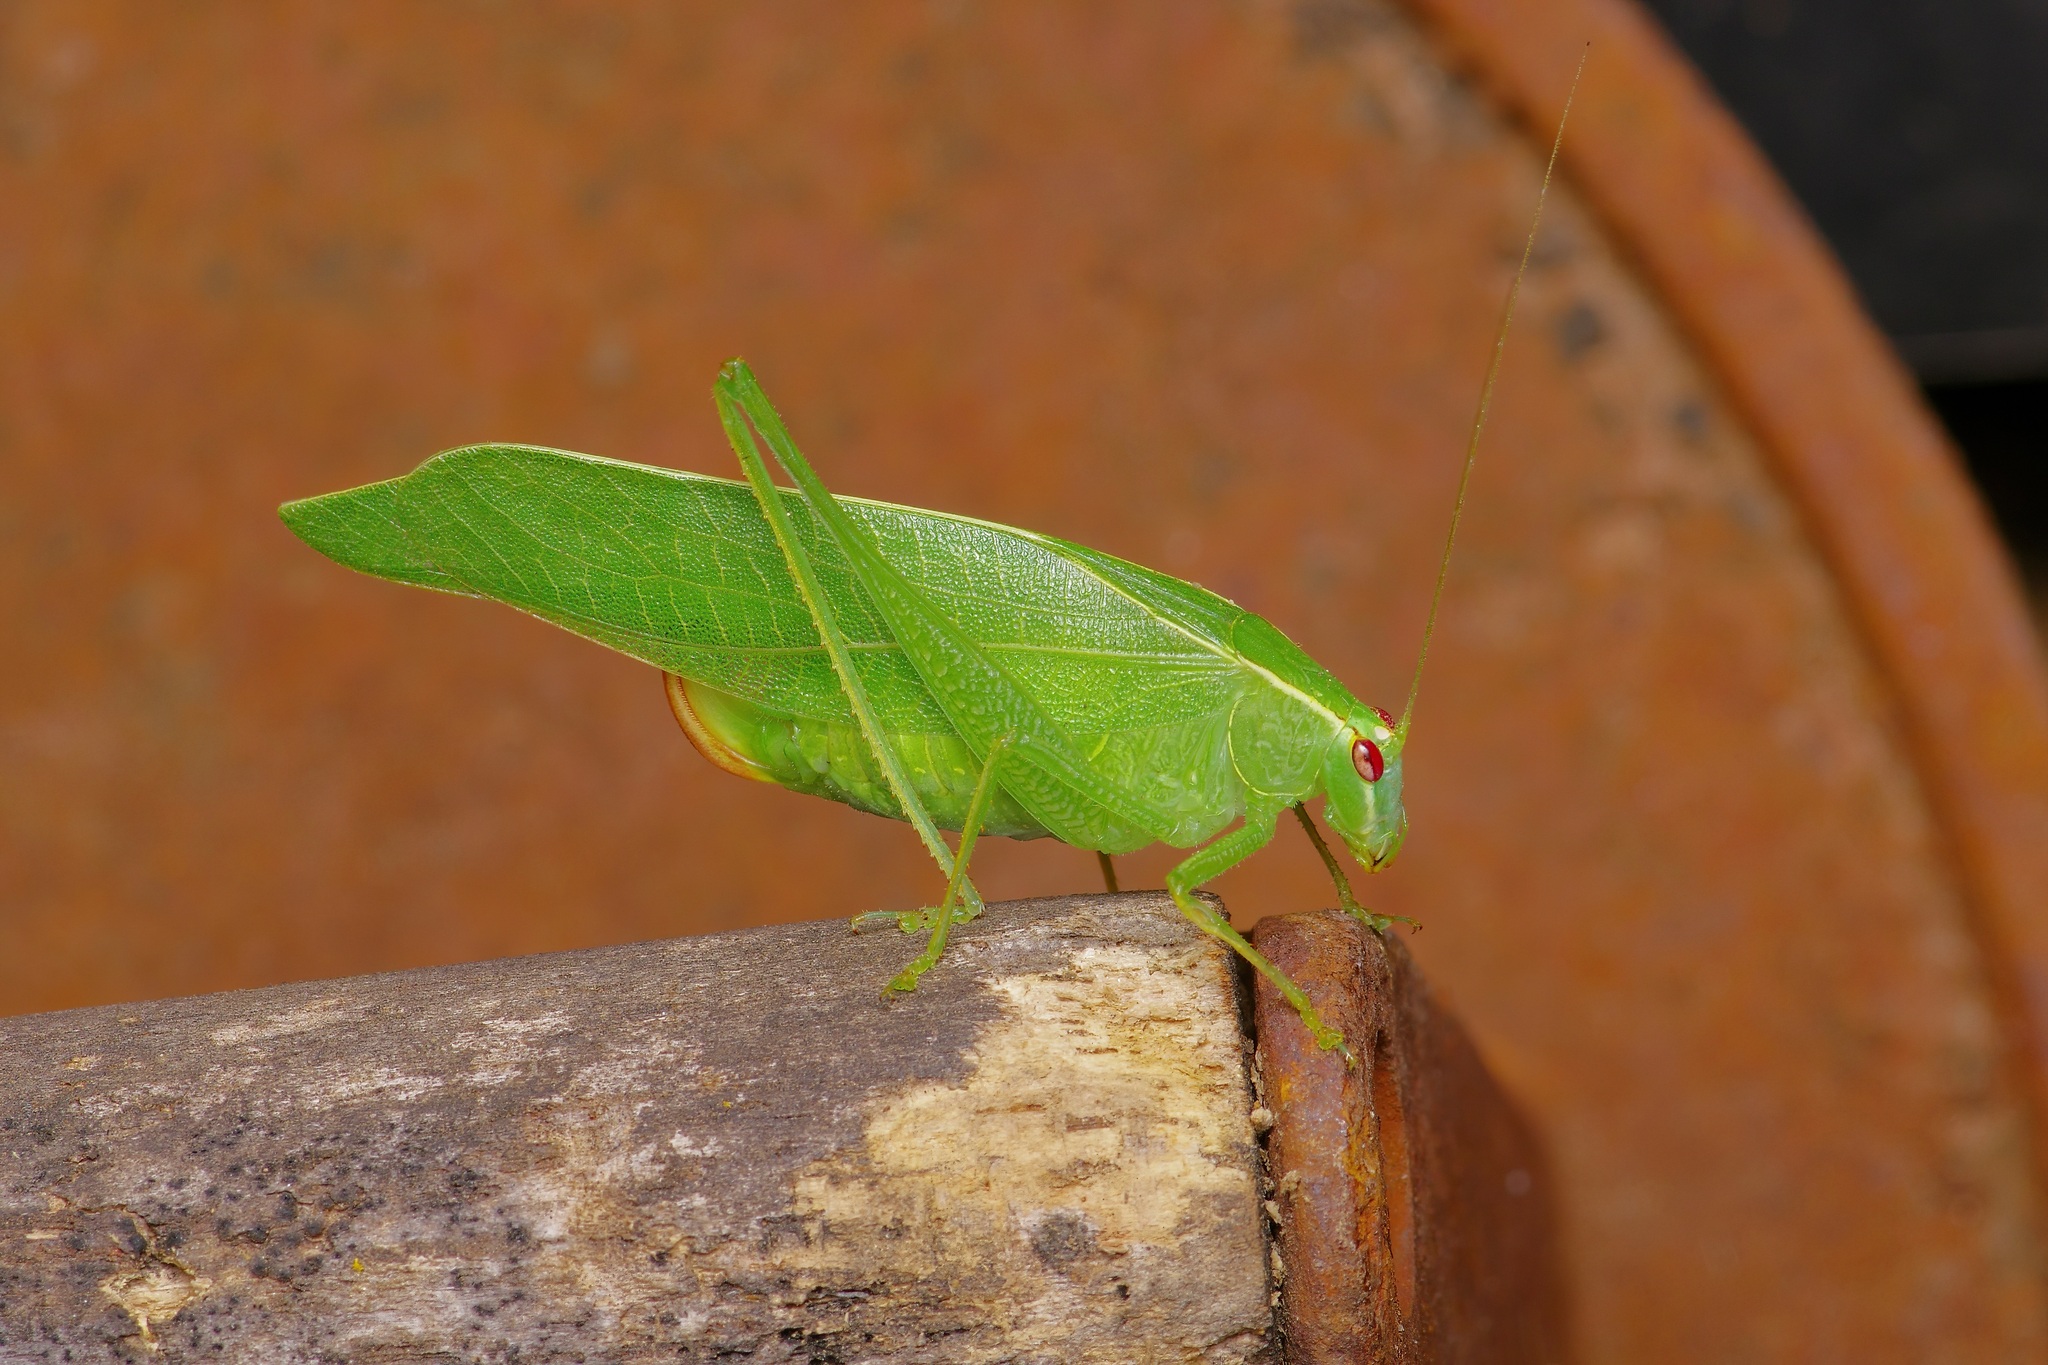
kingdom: Animalia
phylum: Arthropoda
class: Insecta
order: Orthoptera
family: Tettigoniidae
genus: Montezumina
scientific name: Montezumina modesta
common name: Modest katydid
